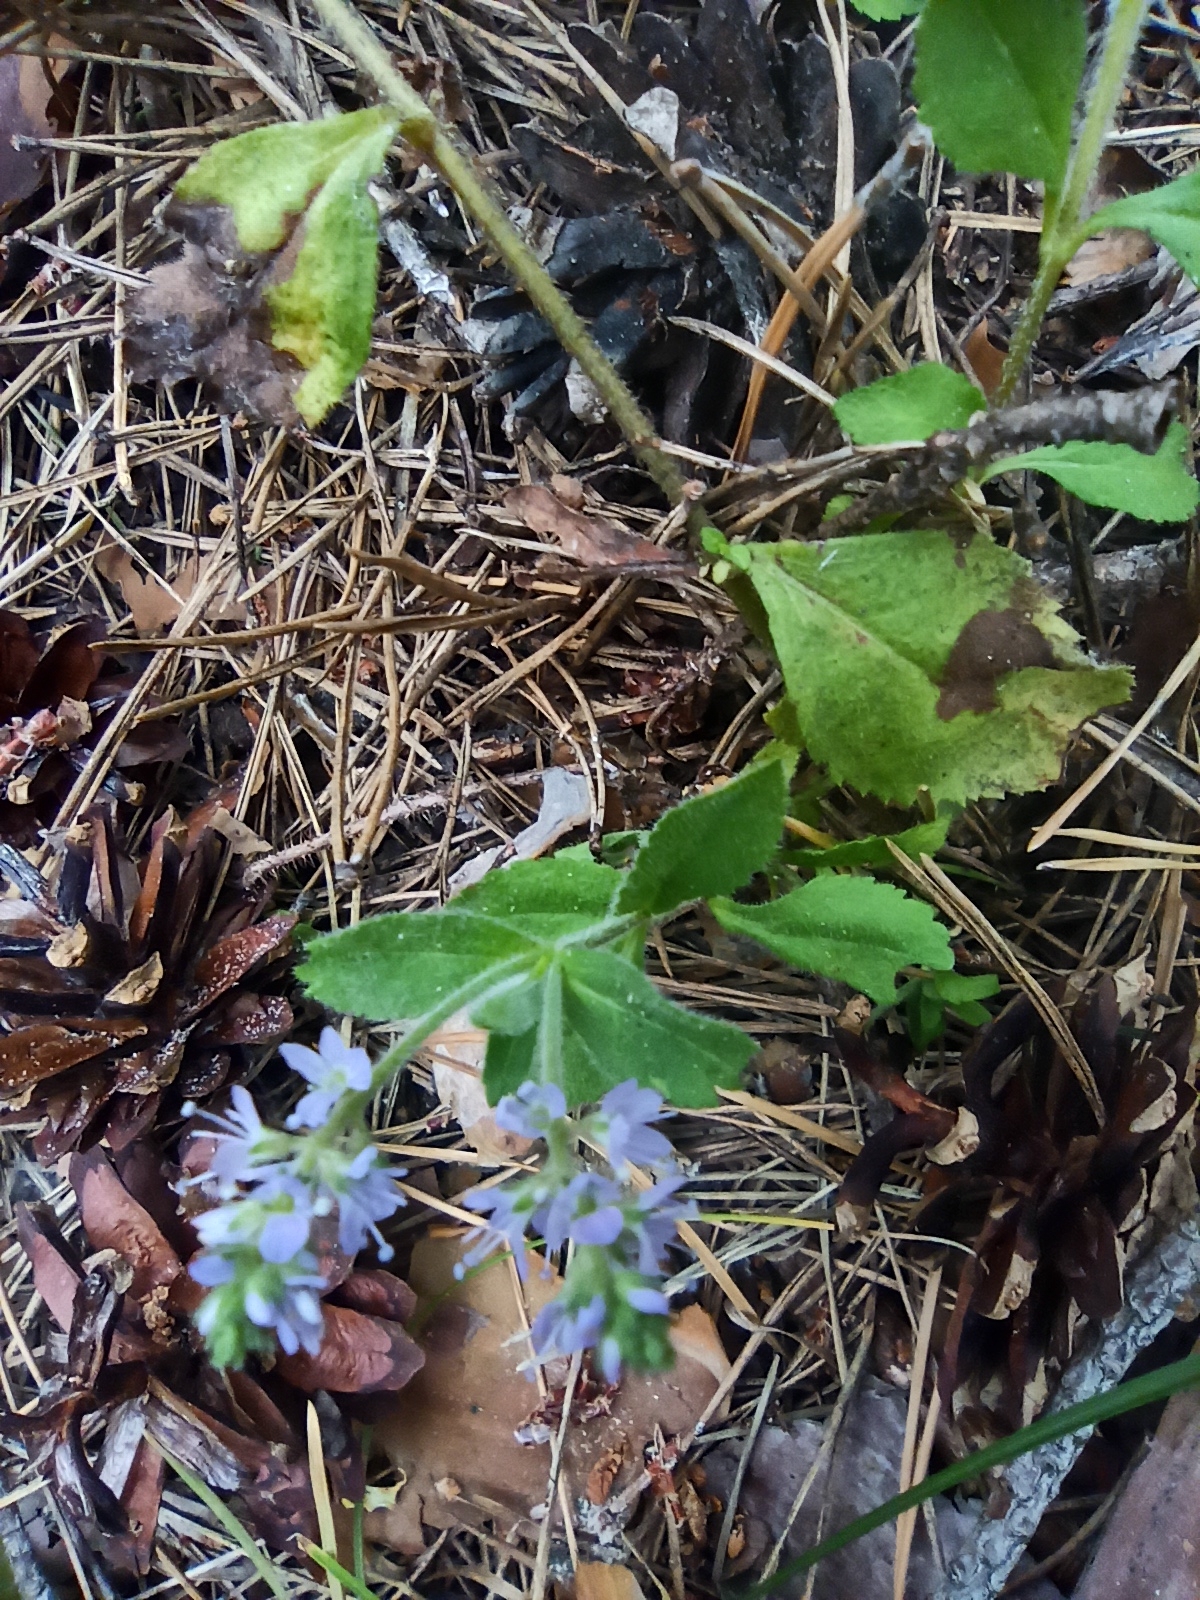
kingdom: Plantae
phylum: Tracheophyta
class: Magnoliopsida
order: Lamiales
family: Plantaginaceae
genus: Veronica
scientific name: Veronica officinalis
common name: Common speedwell
